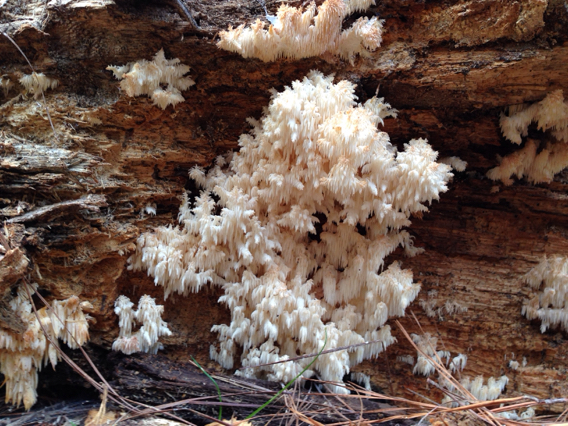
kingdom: Fungi
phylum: Basidiomycota
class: Agaricomycetes
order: Russulales
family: Hericiaceae
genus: Hericium
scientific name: Hericium coralloides
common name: Coral tooth
